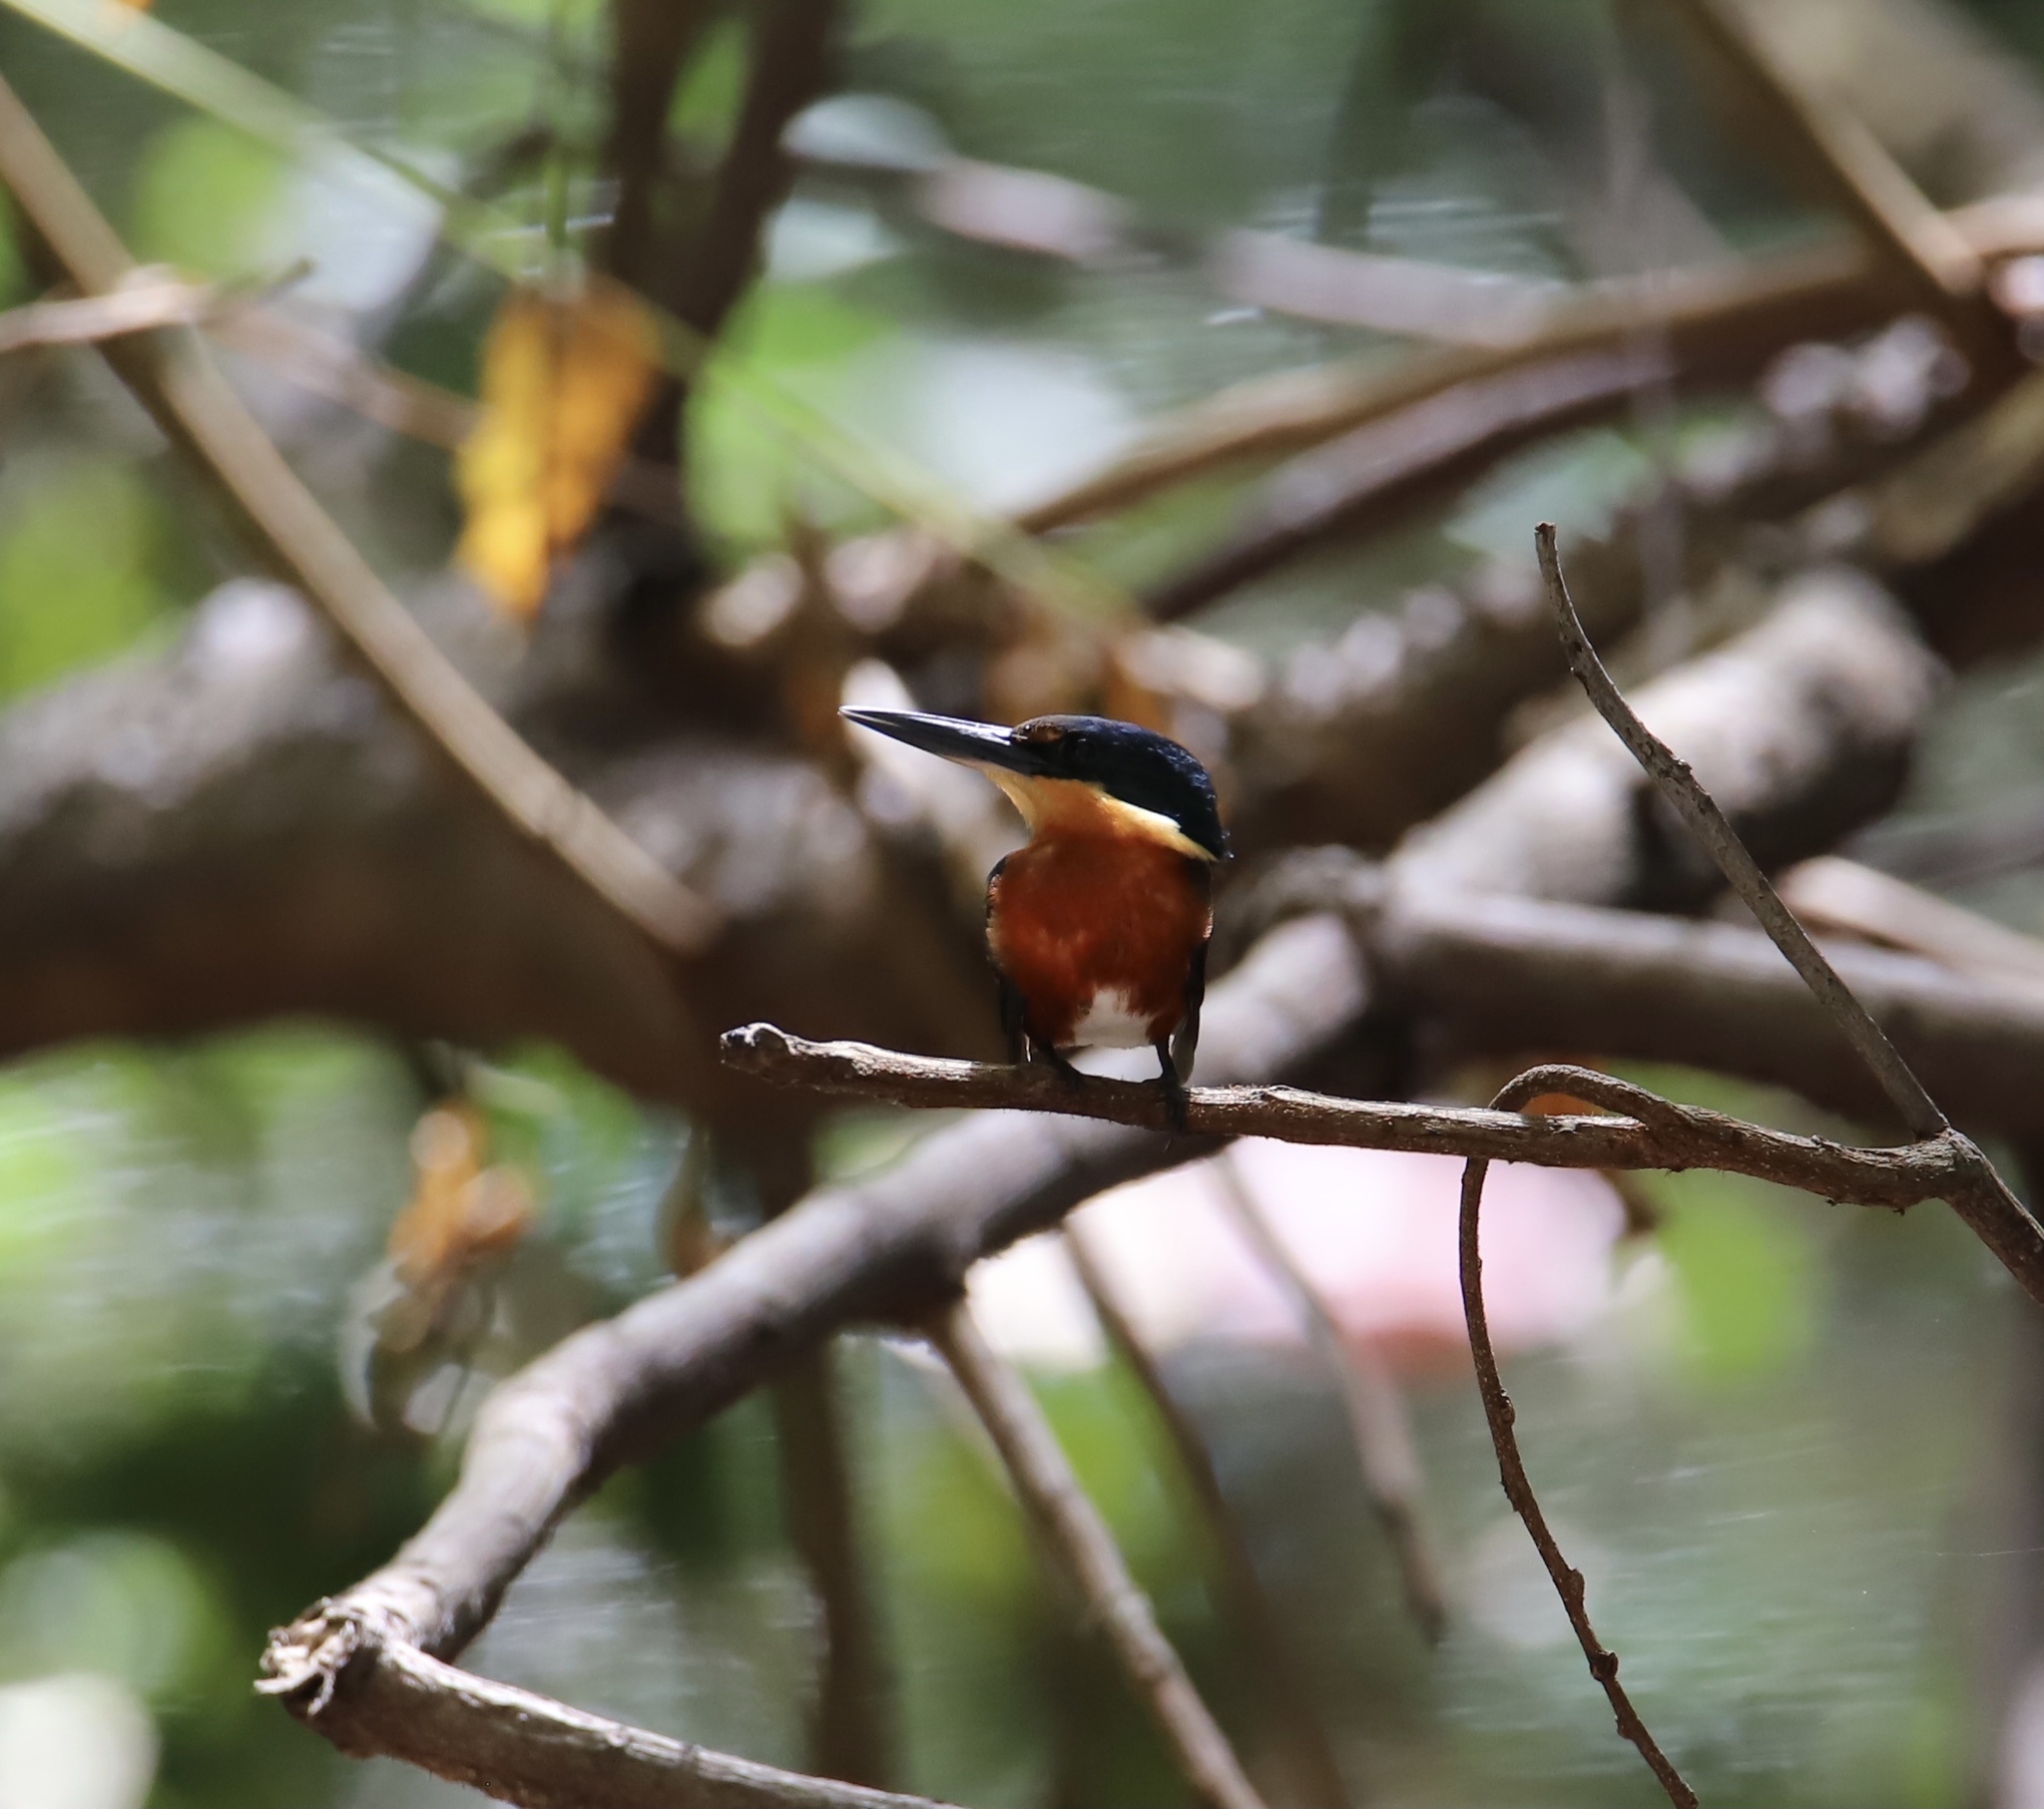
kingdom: Animalia
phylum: Chordata
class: Aves
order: Coraciiformes
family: Alcedinidae
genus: Chloroceryle
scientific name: Chloroceryle aenea
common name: American pygmy kingfisher
